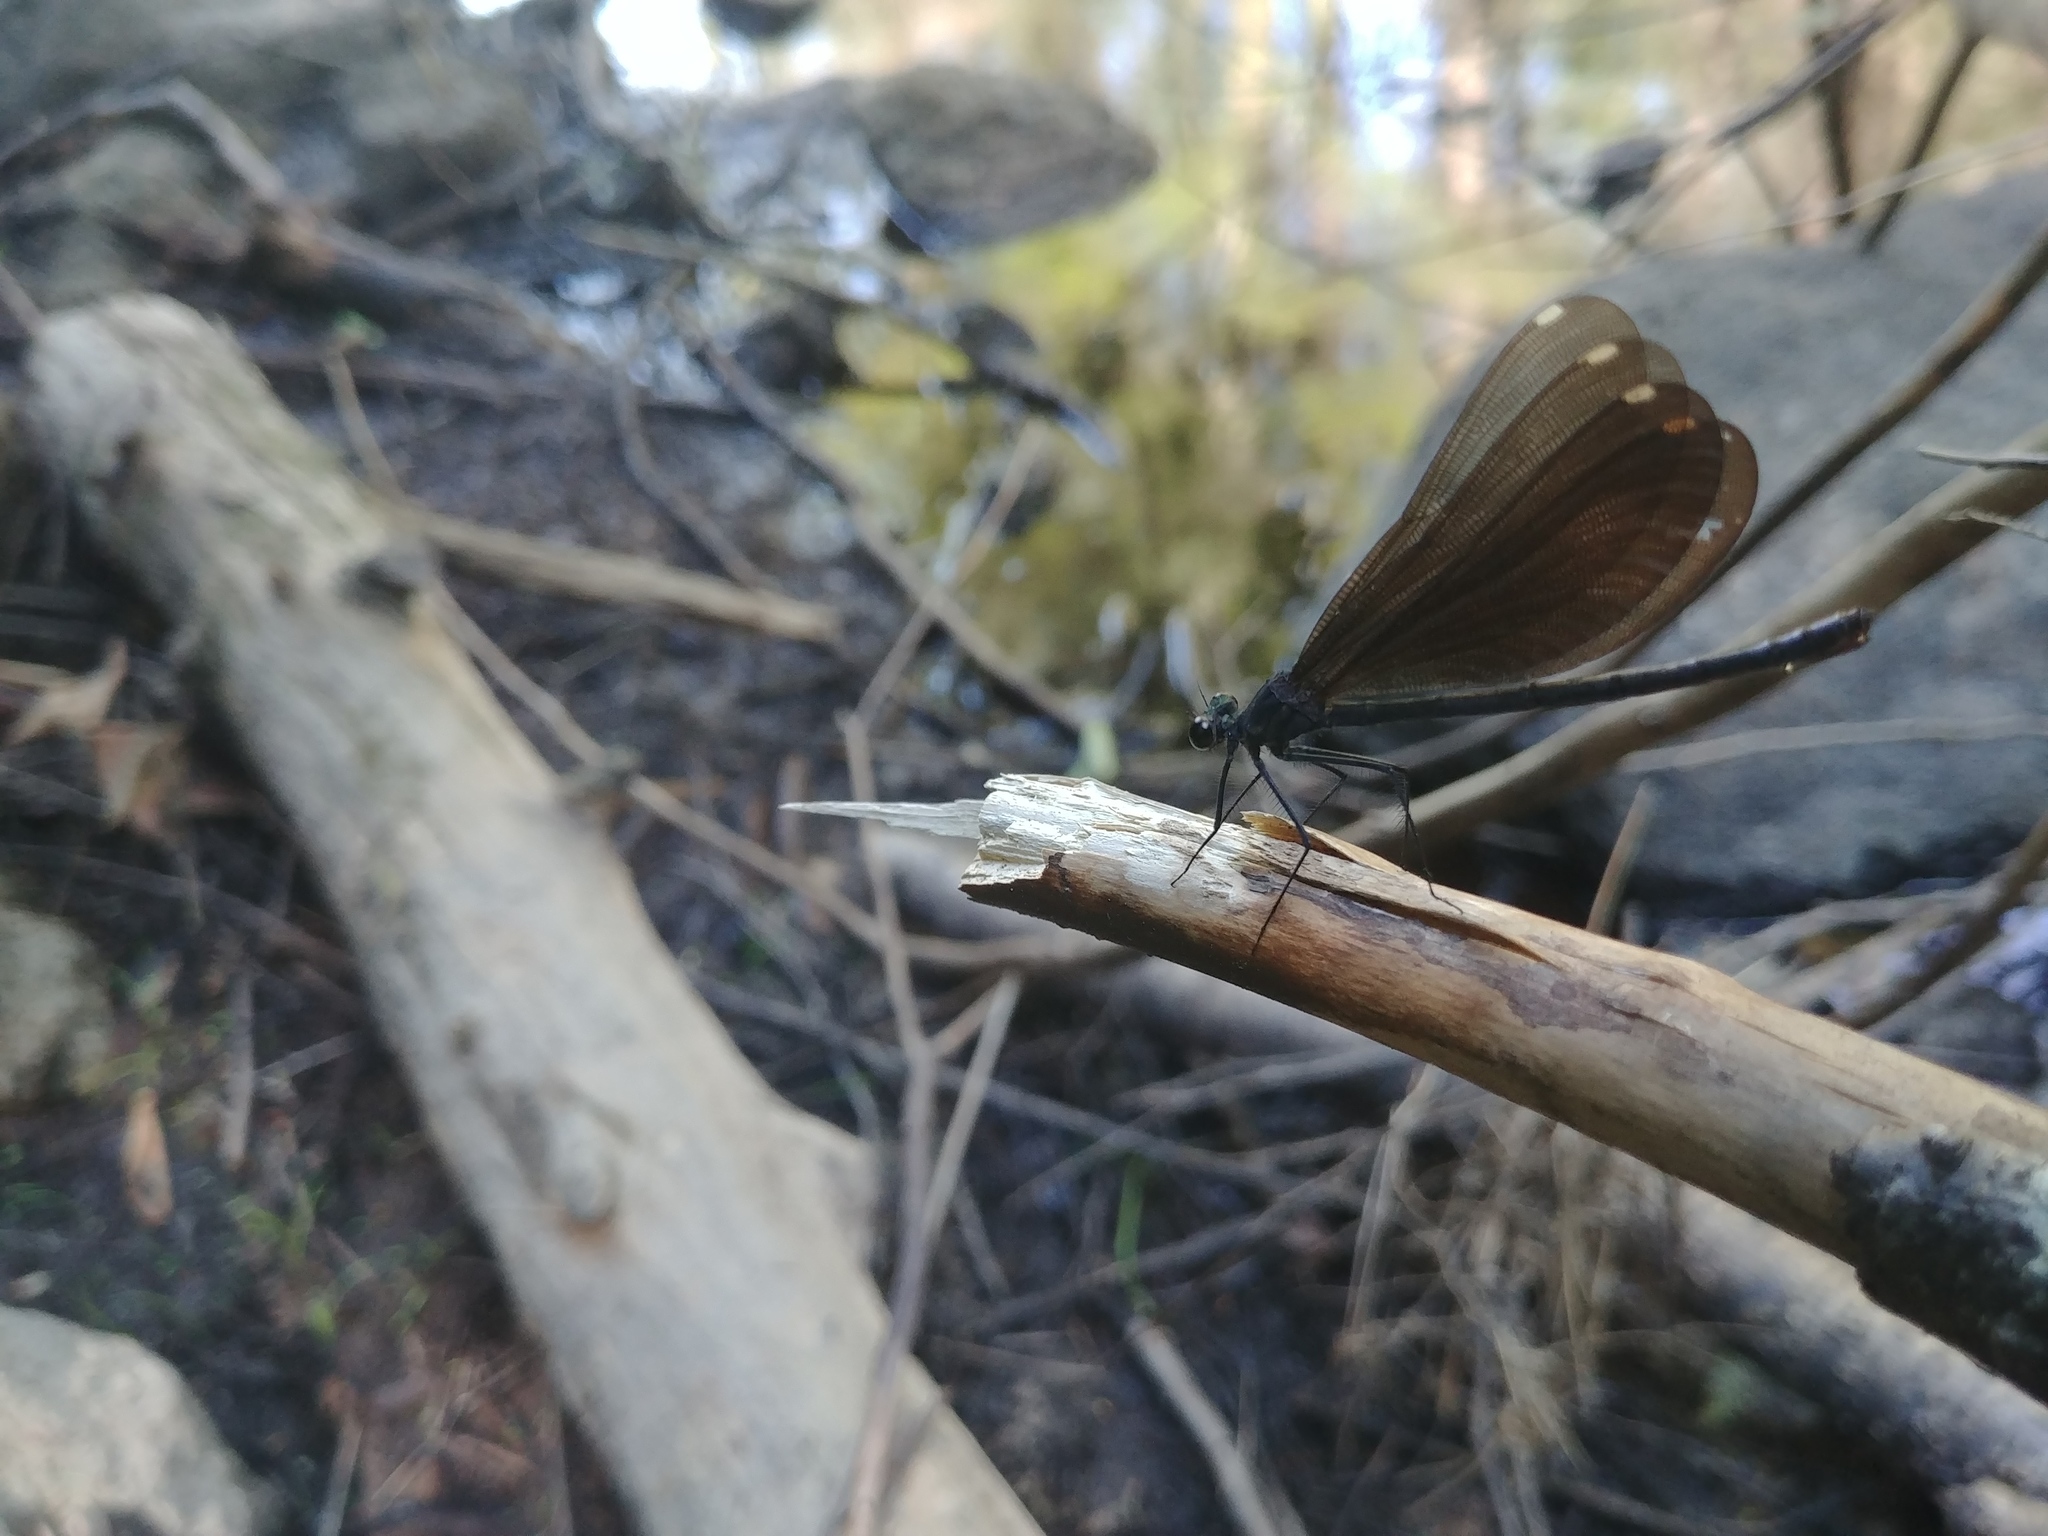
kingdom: Animalia
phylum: Arthropoda
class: Insecta
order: Odonata
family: Calopterygidae
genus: Calopteryx
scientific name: Calopteryx maculata
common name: Ebony jewelwing
